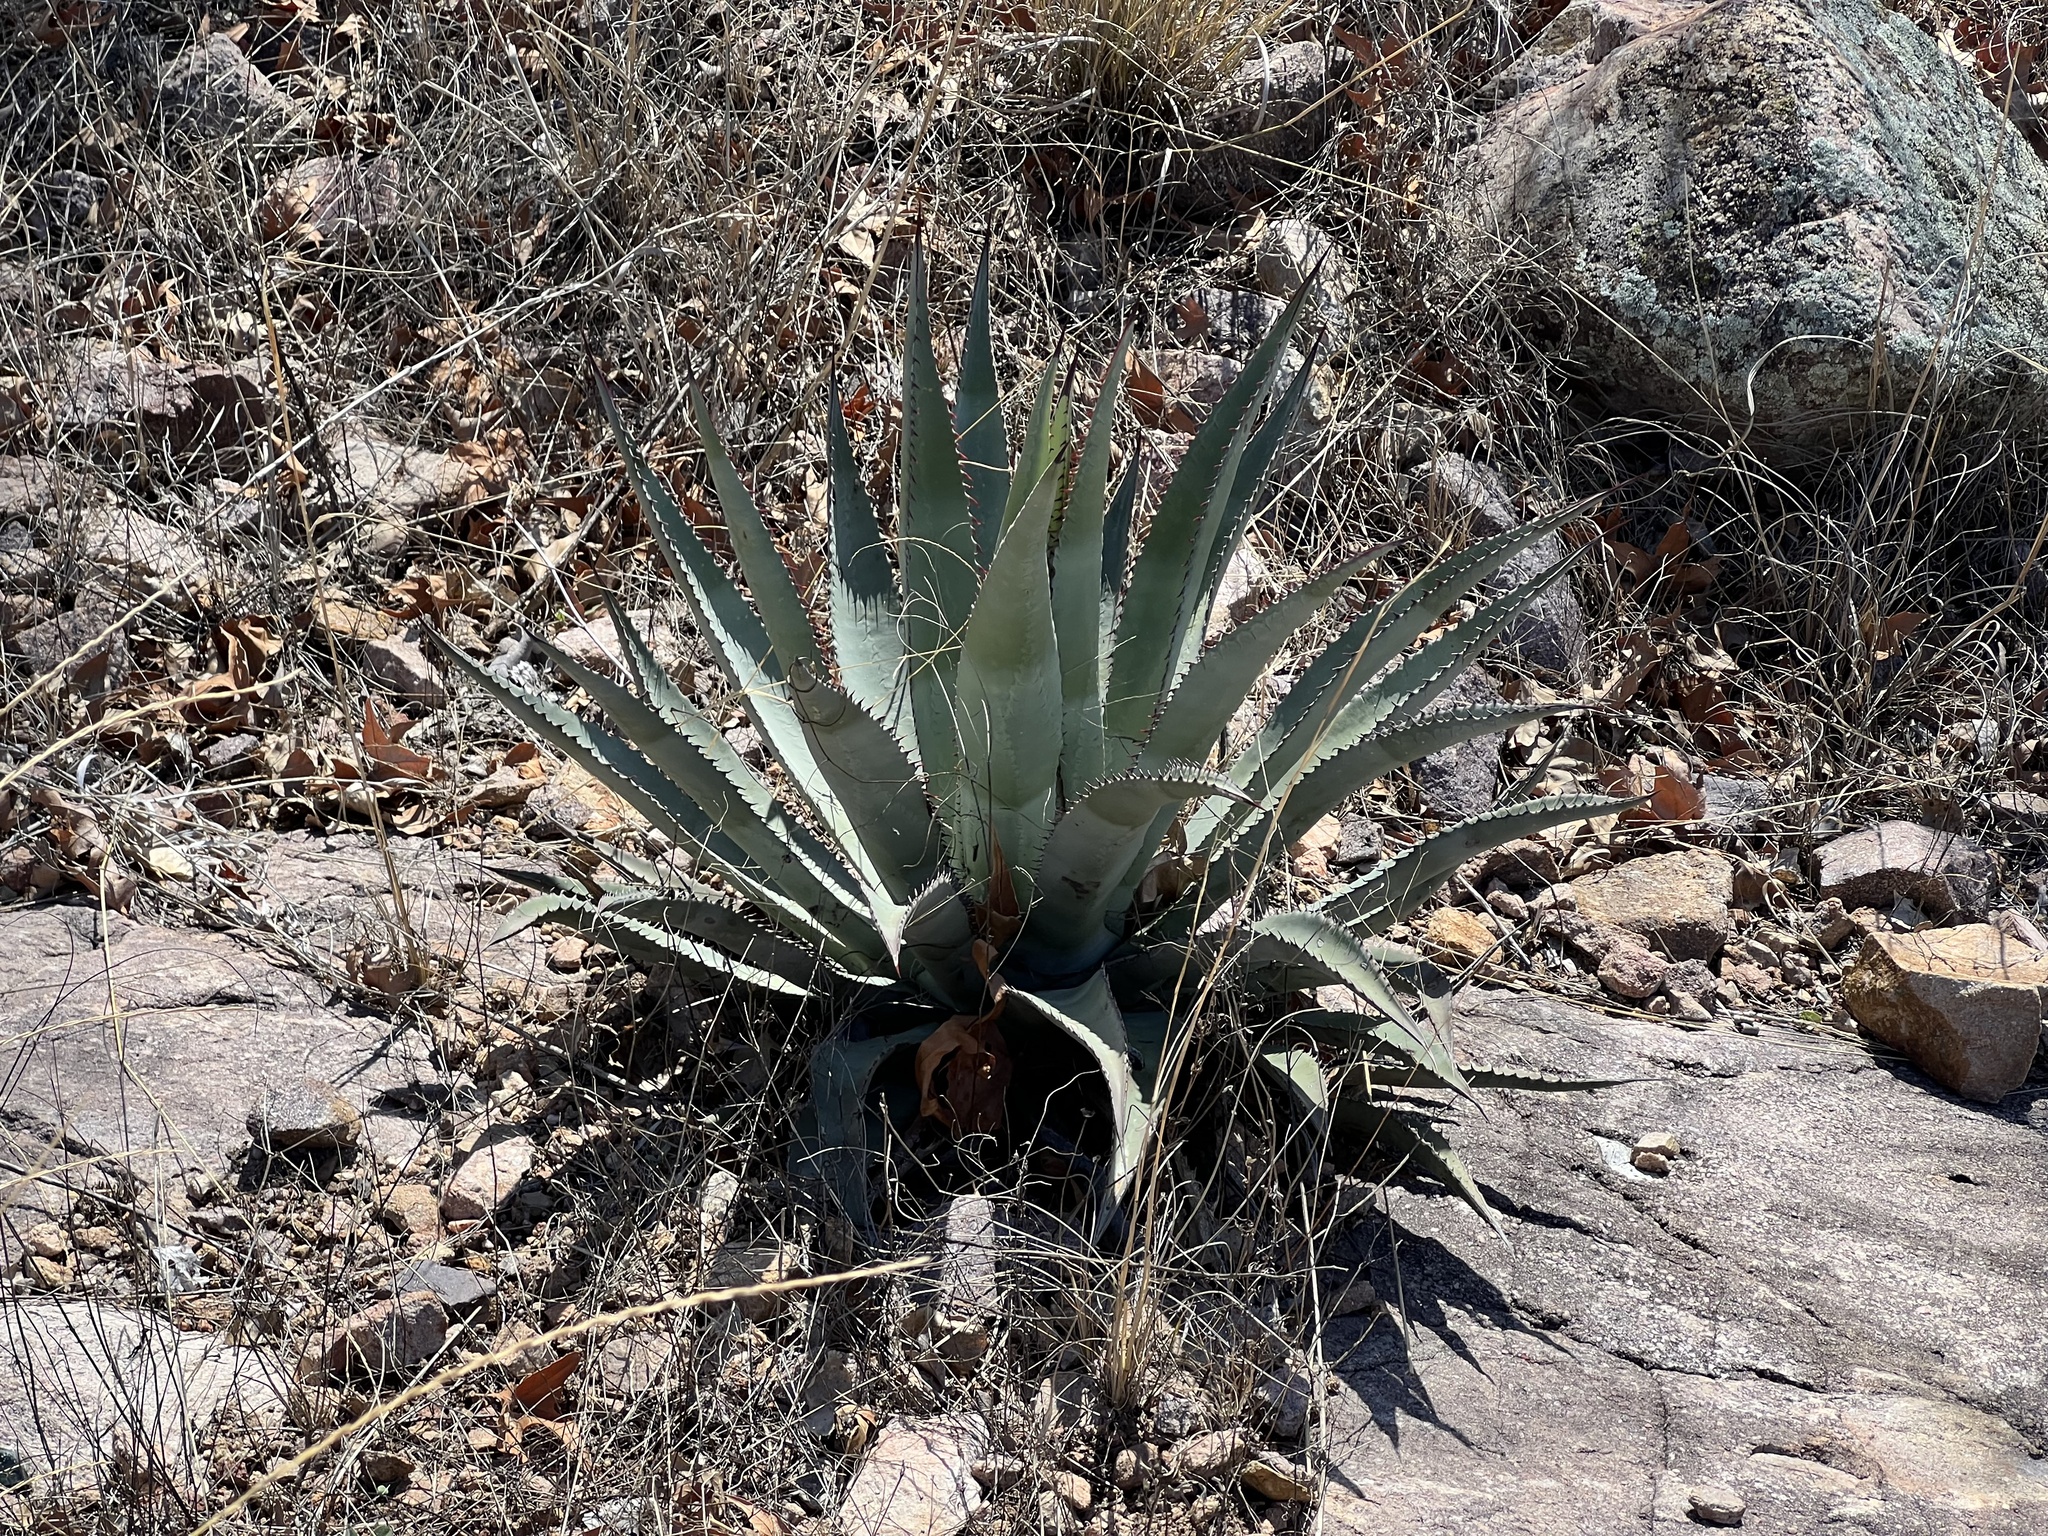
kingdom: Plantae
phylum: Tracheophyta
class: Liliopsida
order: Asparagales
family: Asparagaceae
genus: Agave
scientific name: Agave palmeri
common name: Palmer agave
